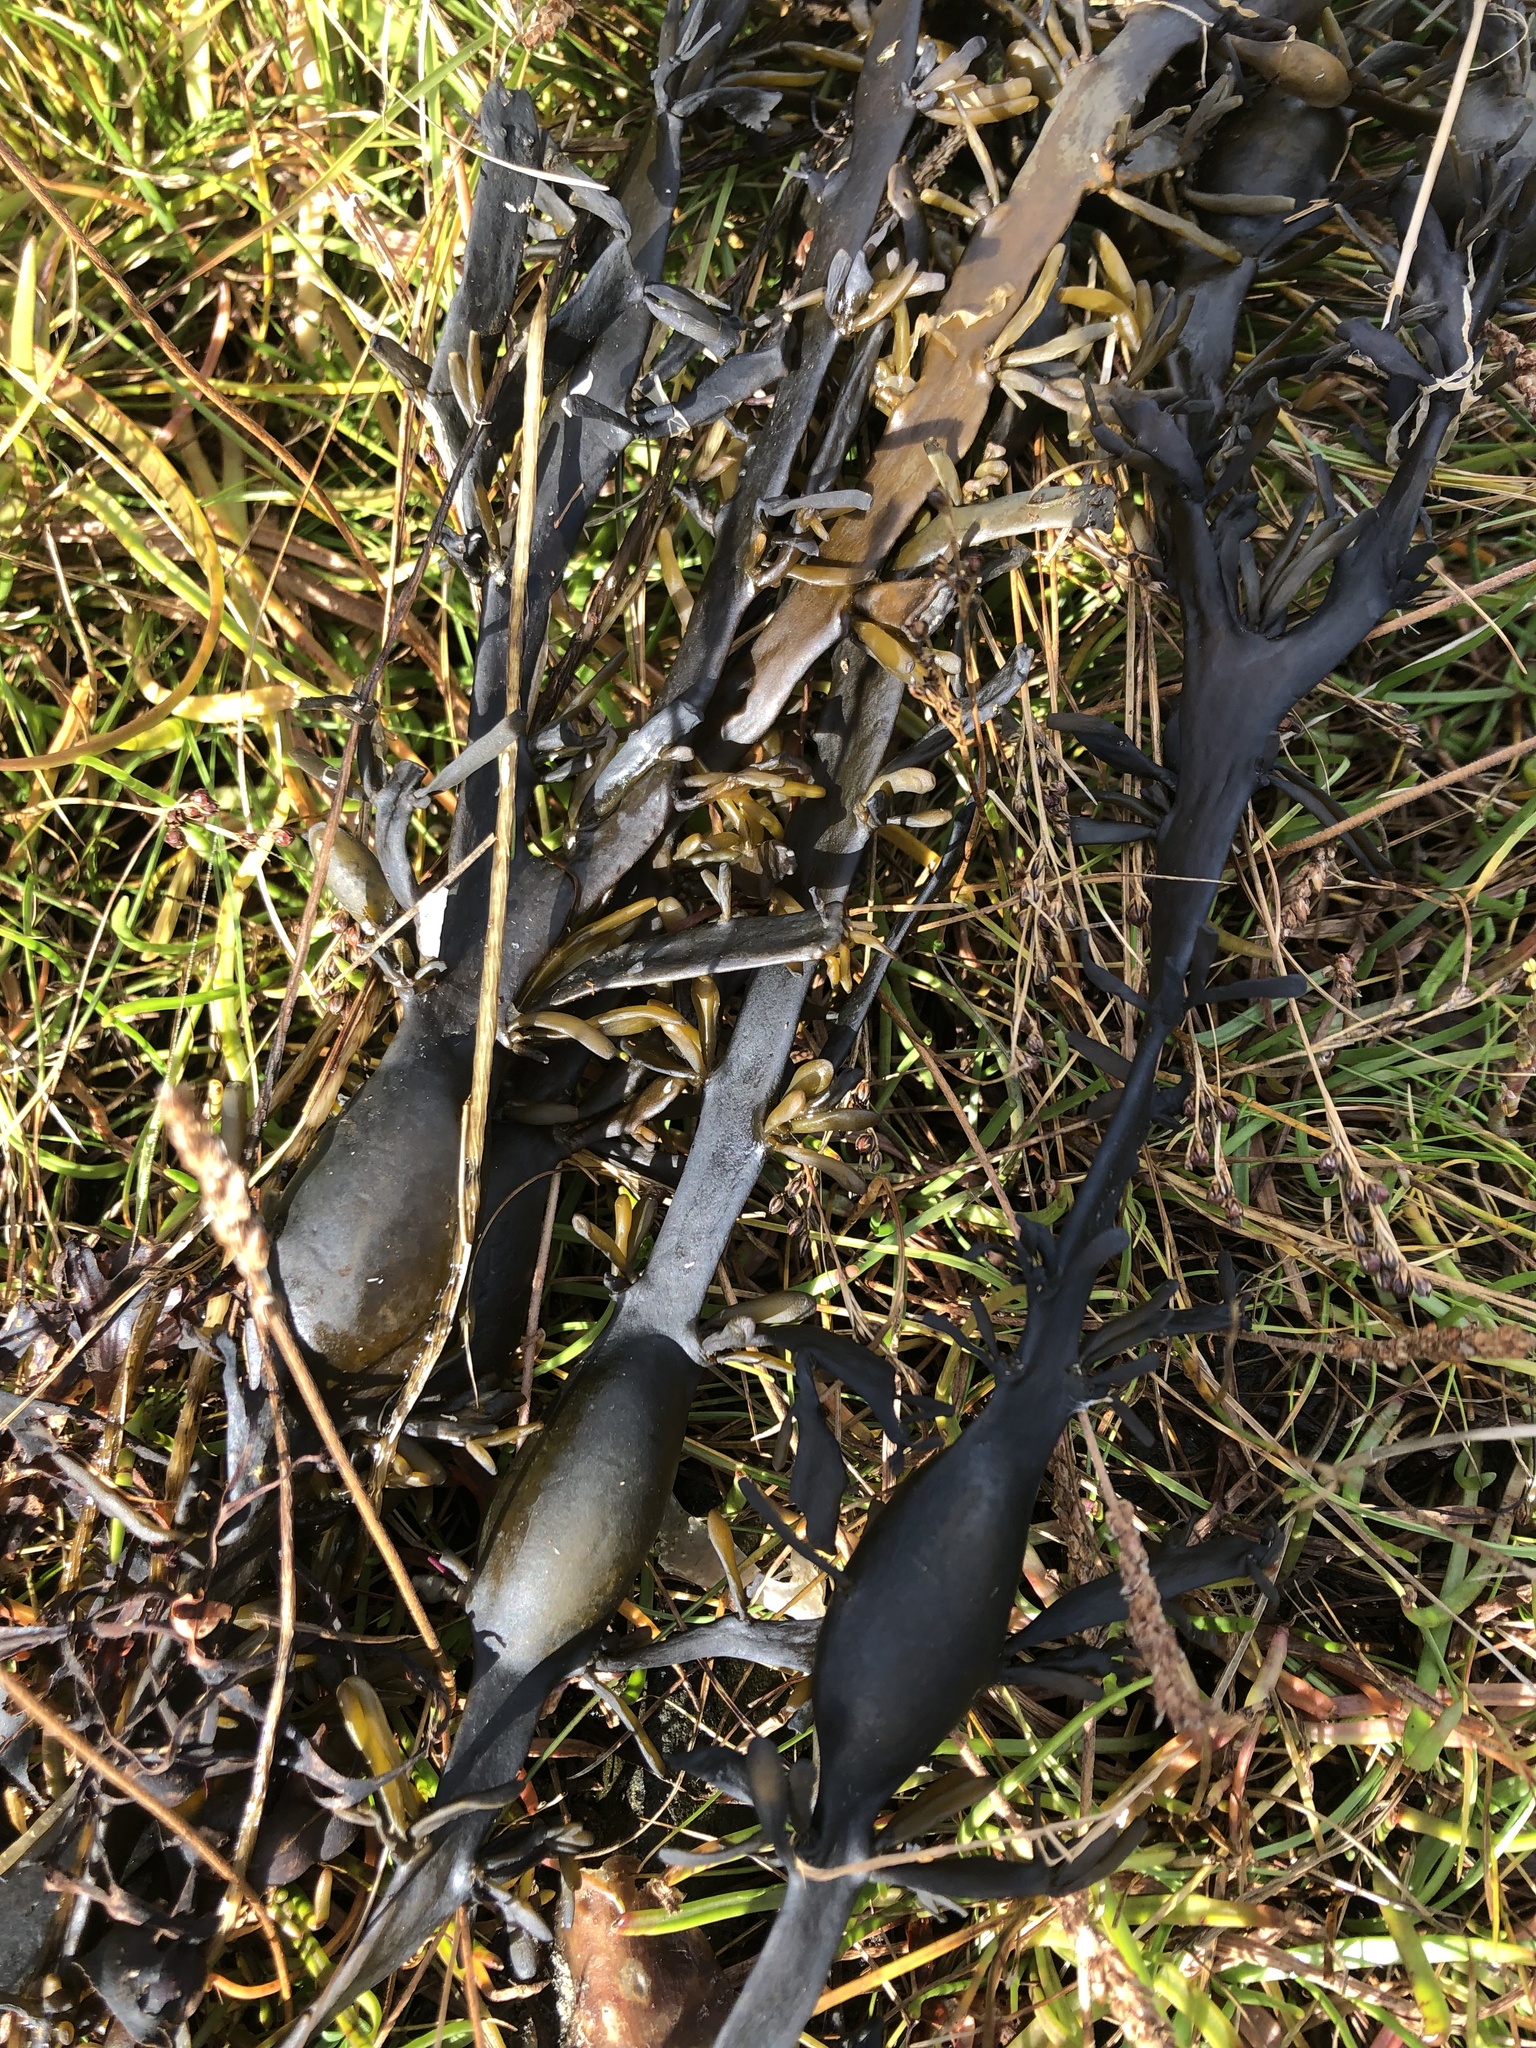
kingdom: Chromista
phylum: Ochrophyta
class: Phaeophyceae
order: Fucales
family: Fucaceae
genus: Ascophyllum
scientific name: Ascophyllum nodosum
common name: Knotted wrack
